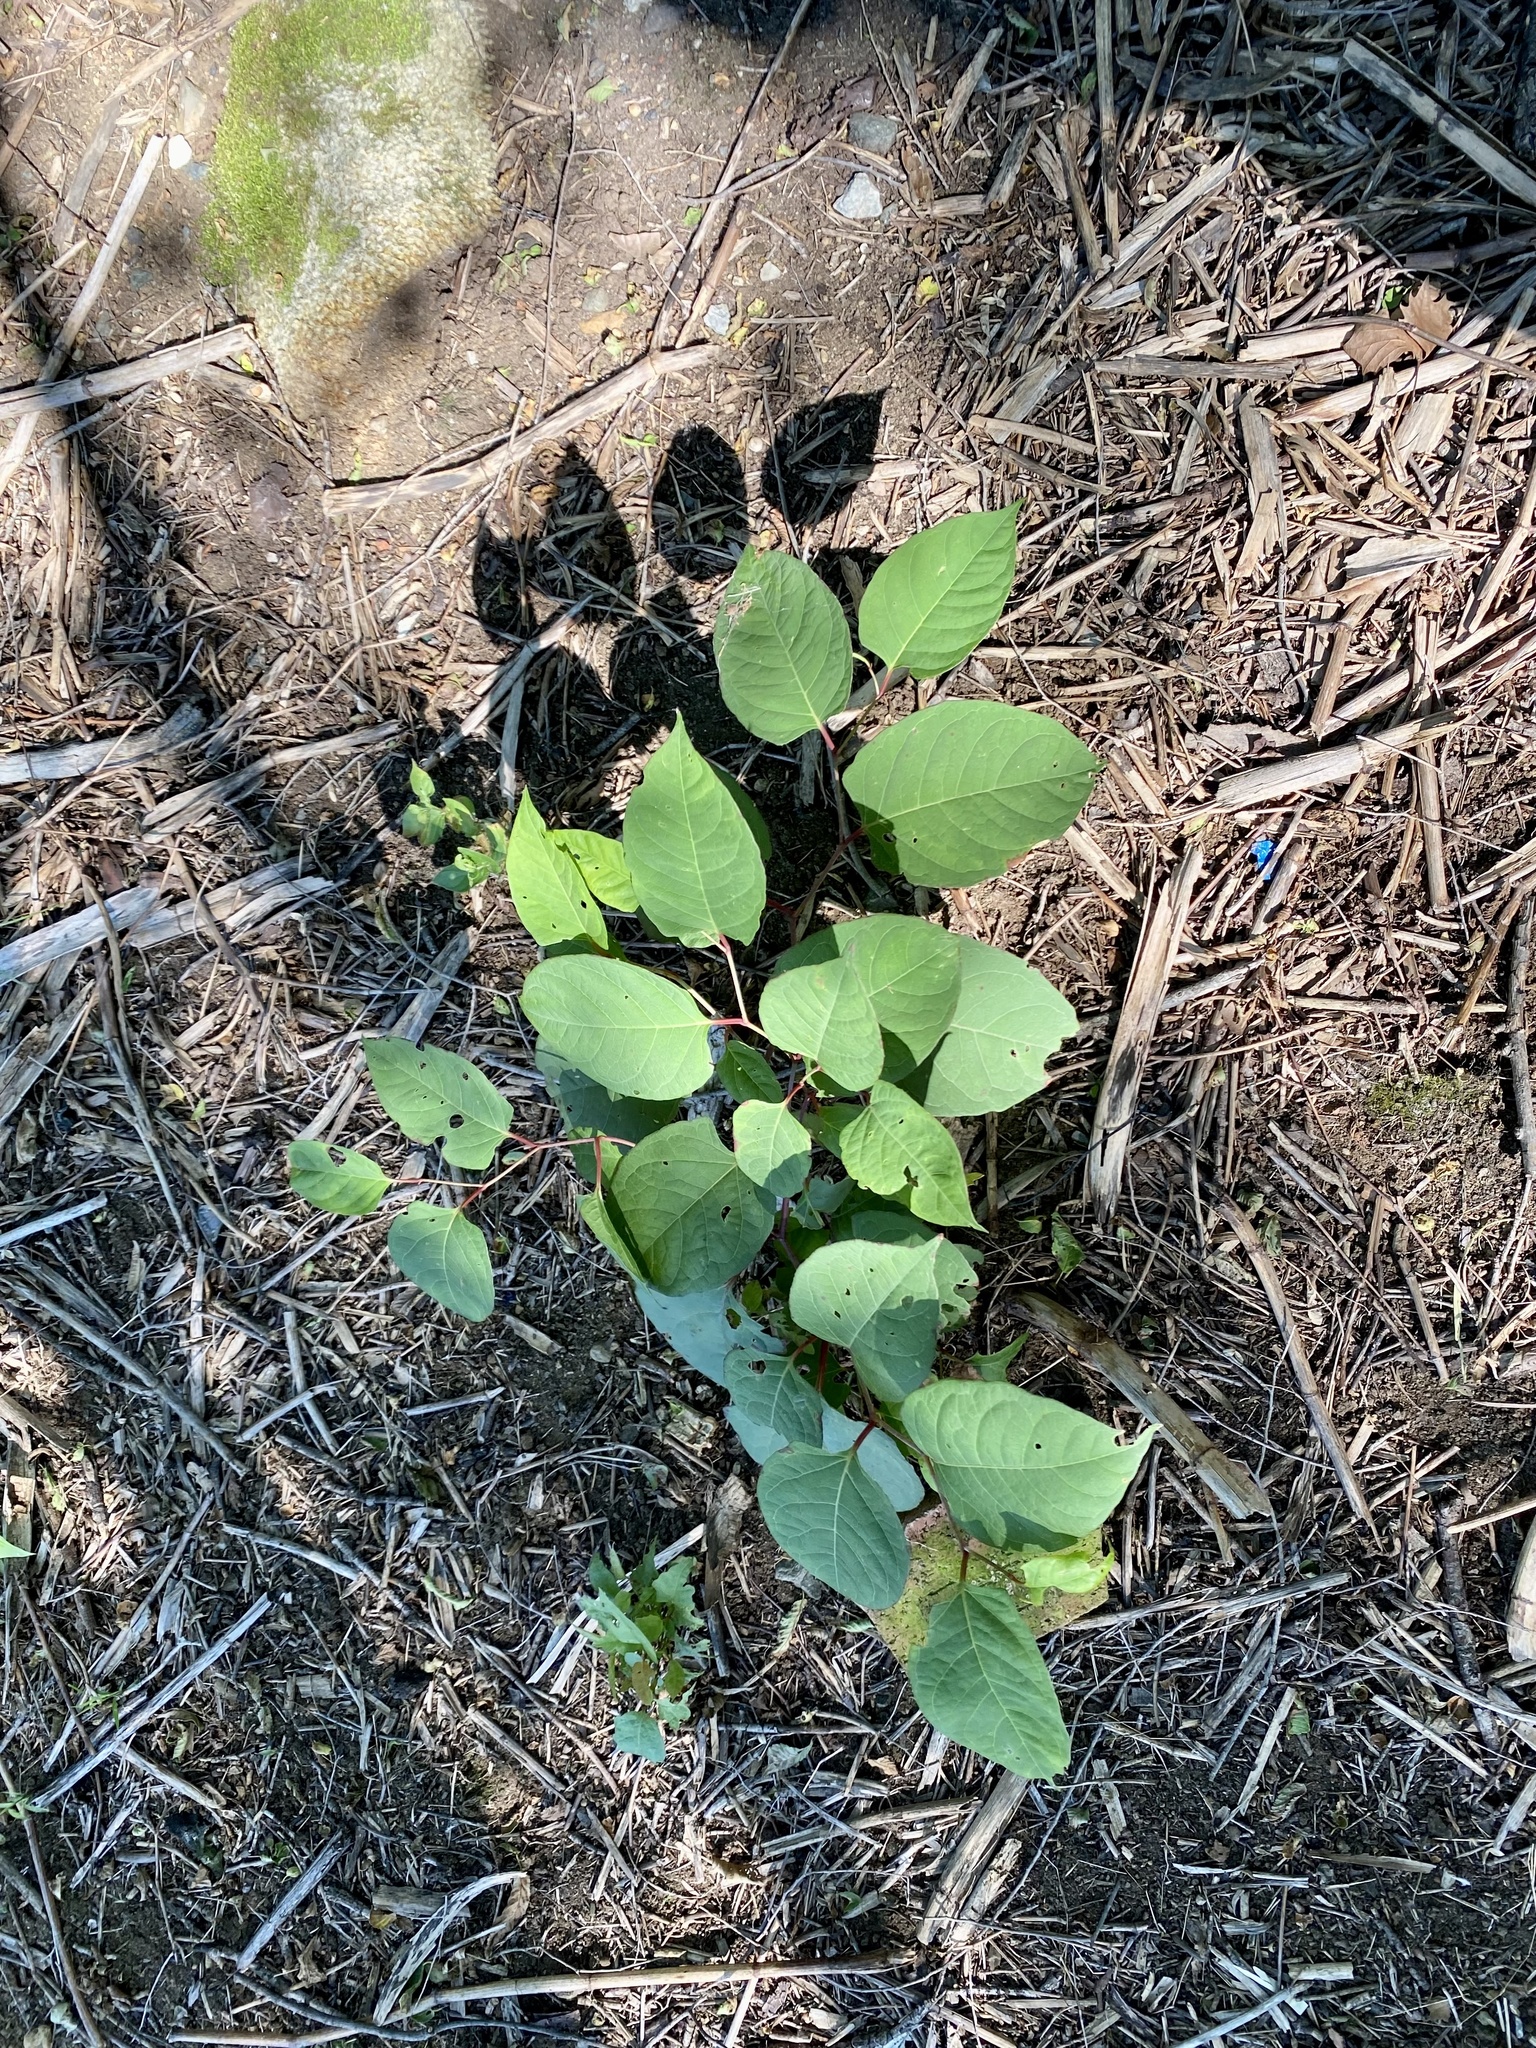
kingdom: Plantae
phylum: Tracheophyta
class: Magnoliopsida
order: Caryophyllales
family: Polygonaceae
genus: Reynoutria
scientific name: Reynoutria japonica
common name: Japanese knotweed
